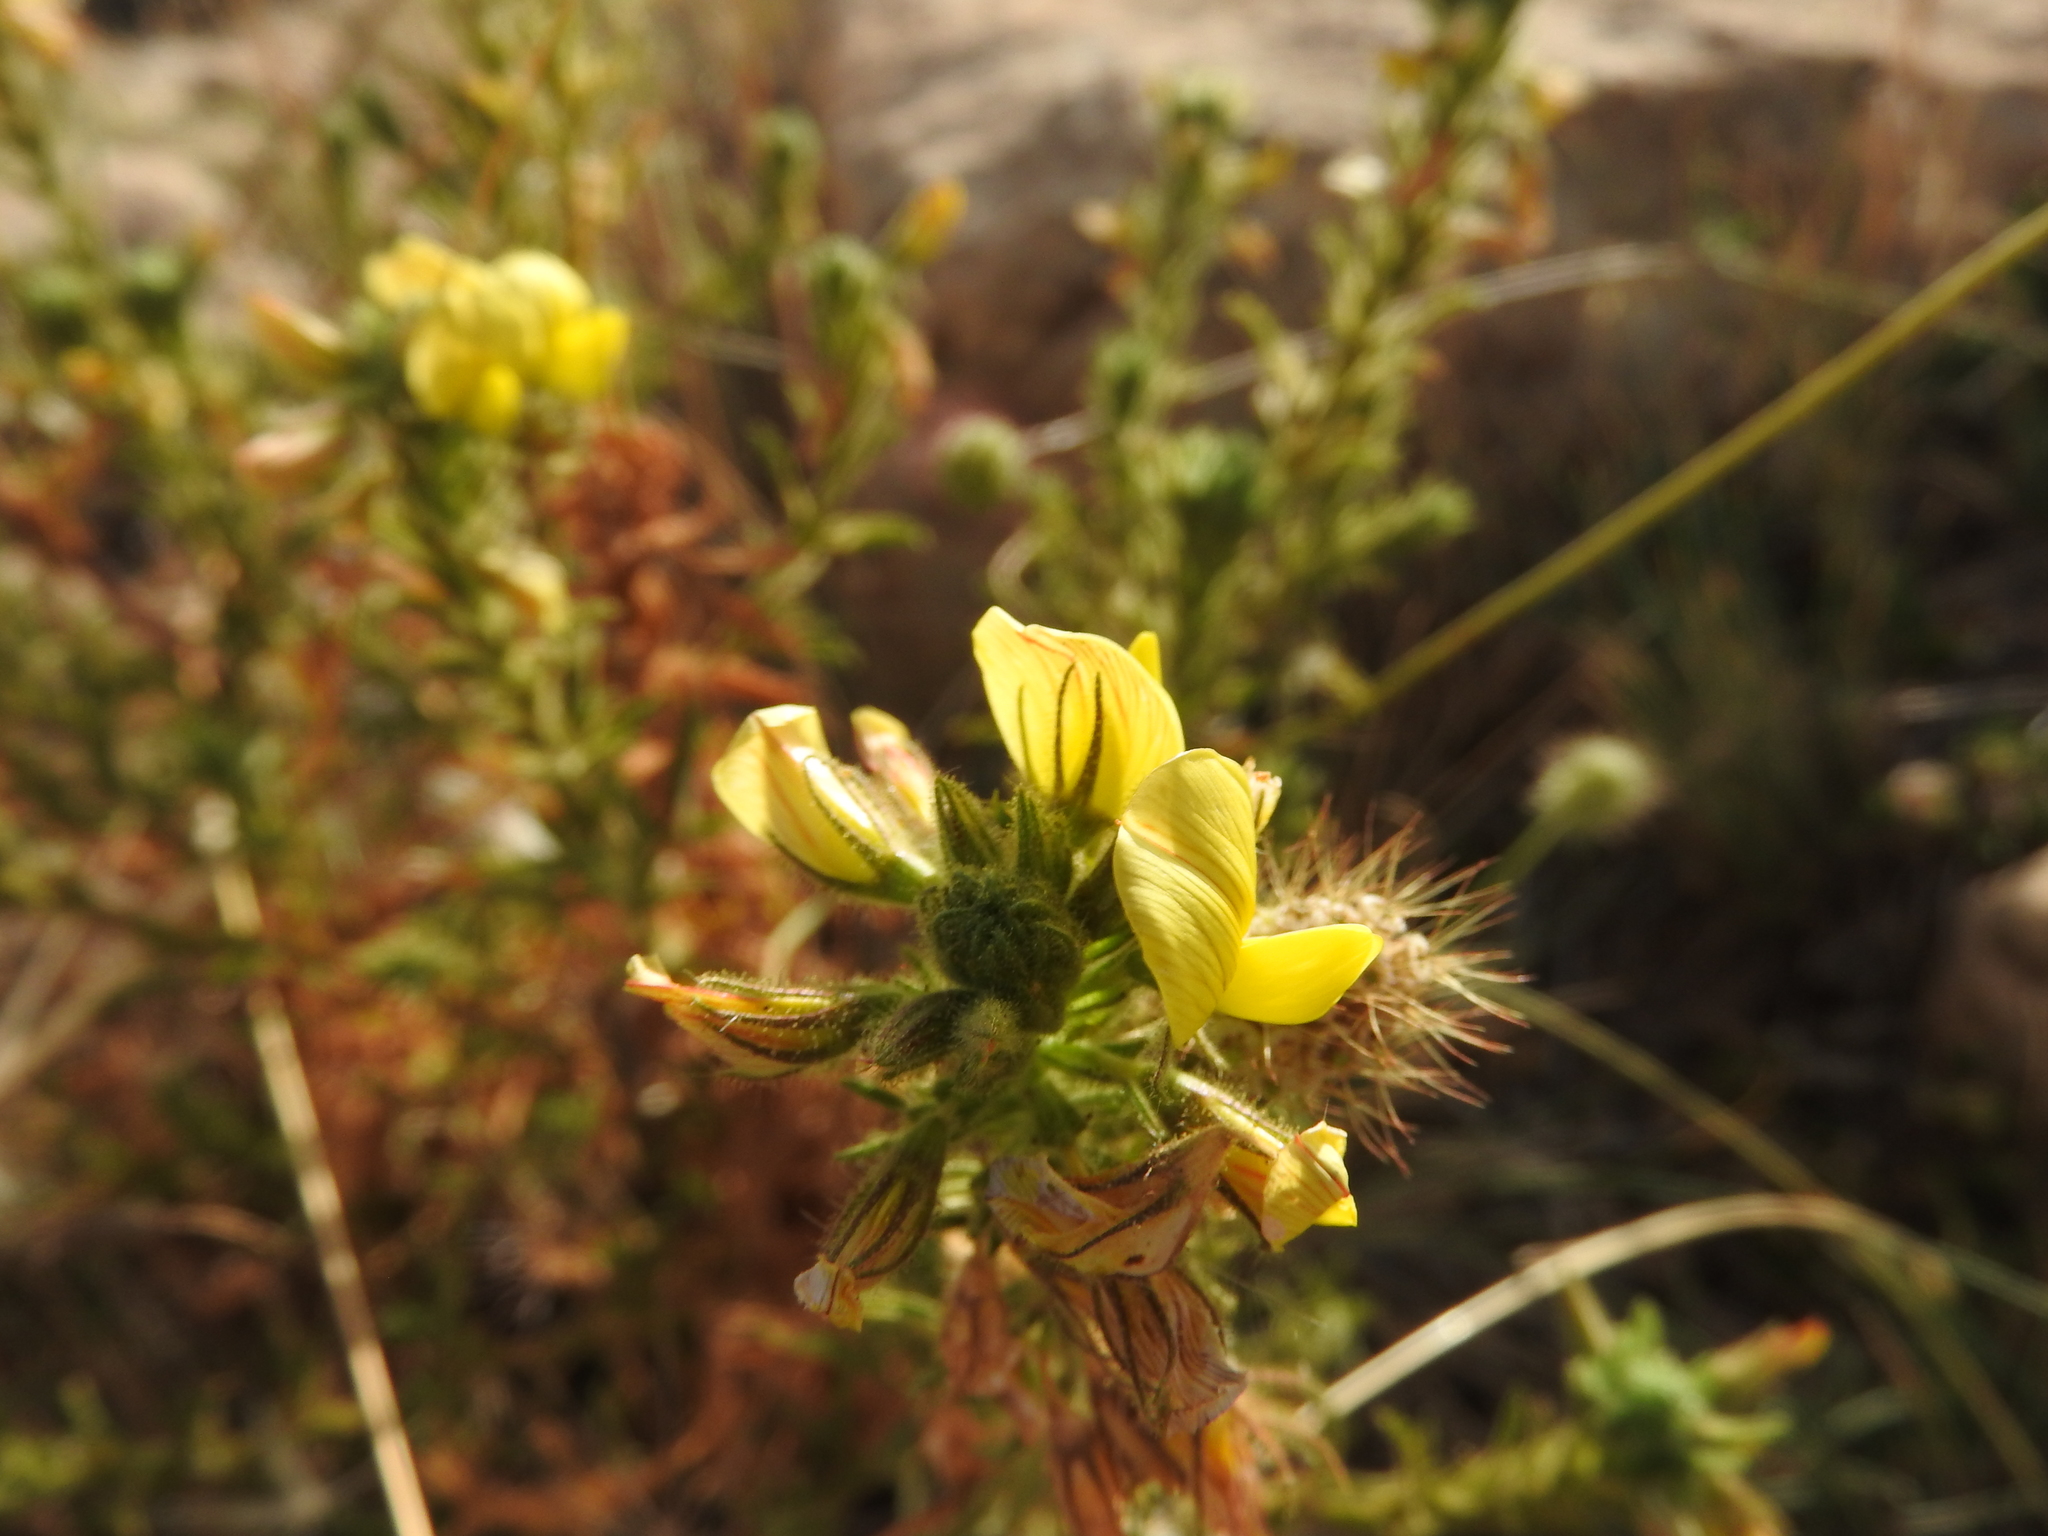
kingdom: Plantae
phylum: Tracheophyta
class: Magnoliopsida
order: Fabales
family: Fabaceae
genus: Ononis
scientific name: Ononis natrix
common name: Yellow restharrow
